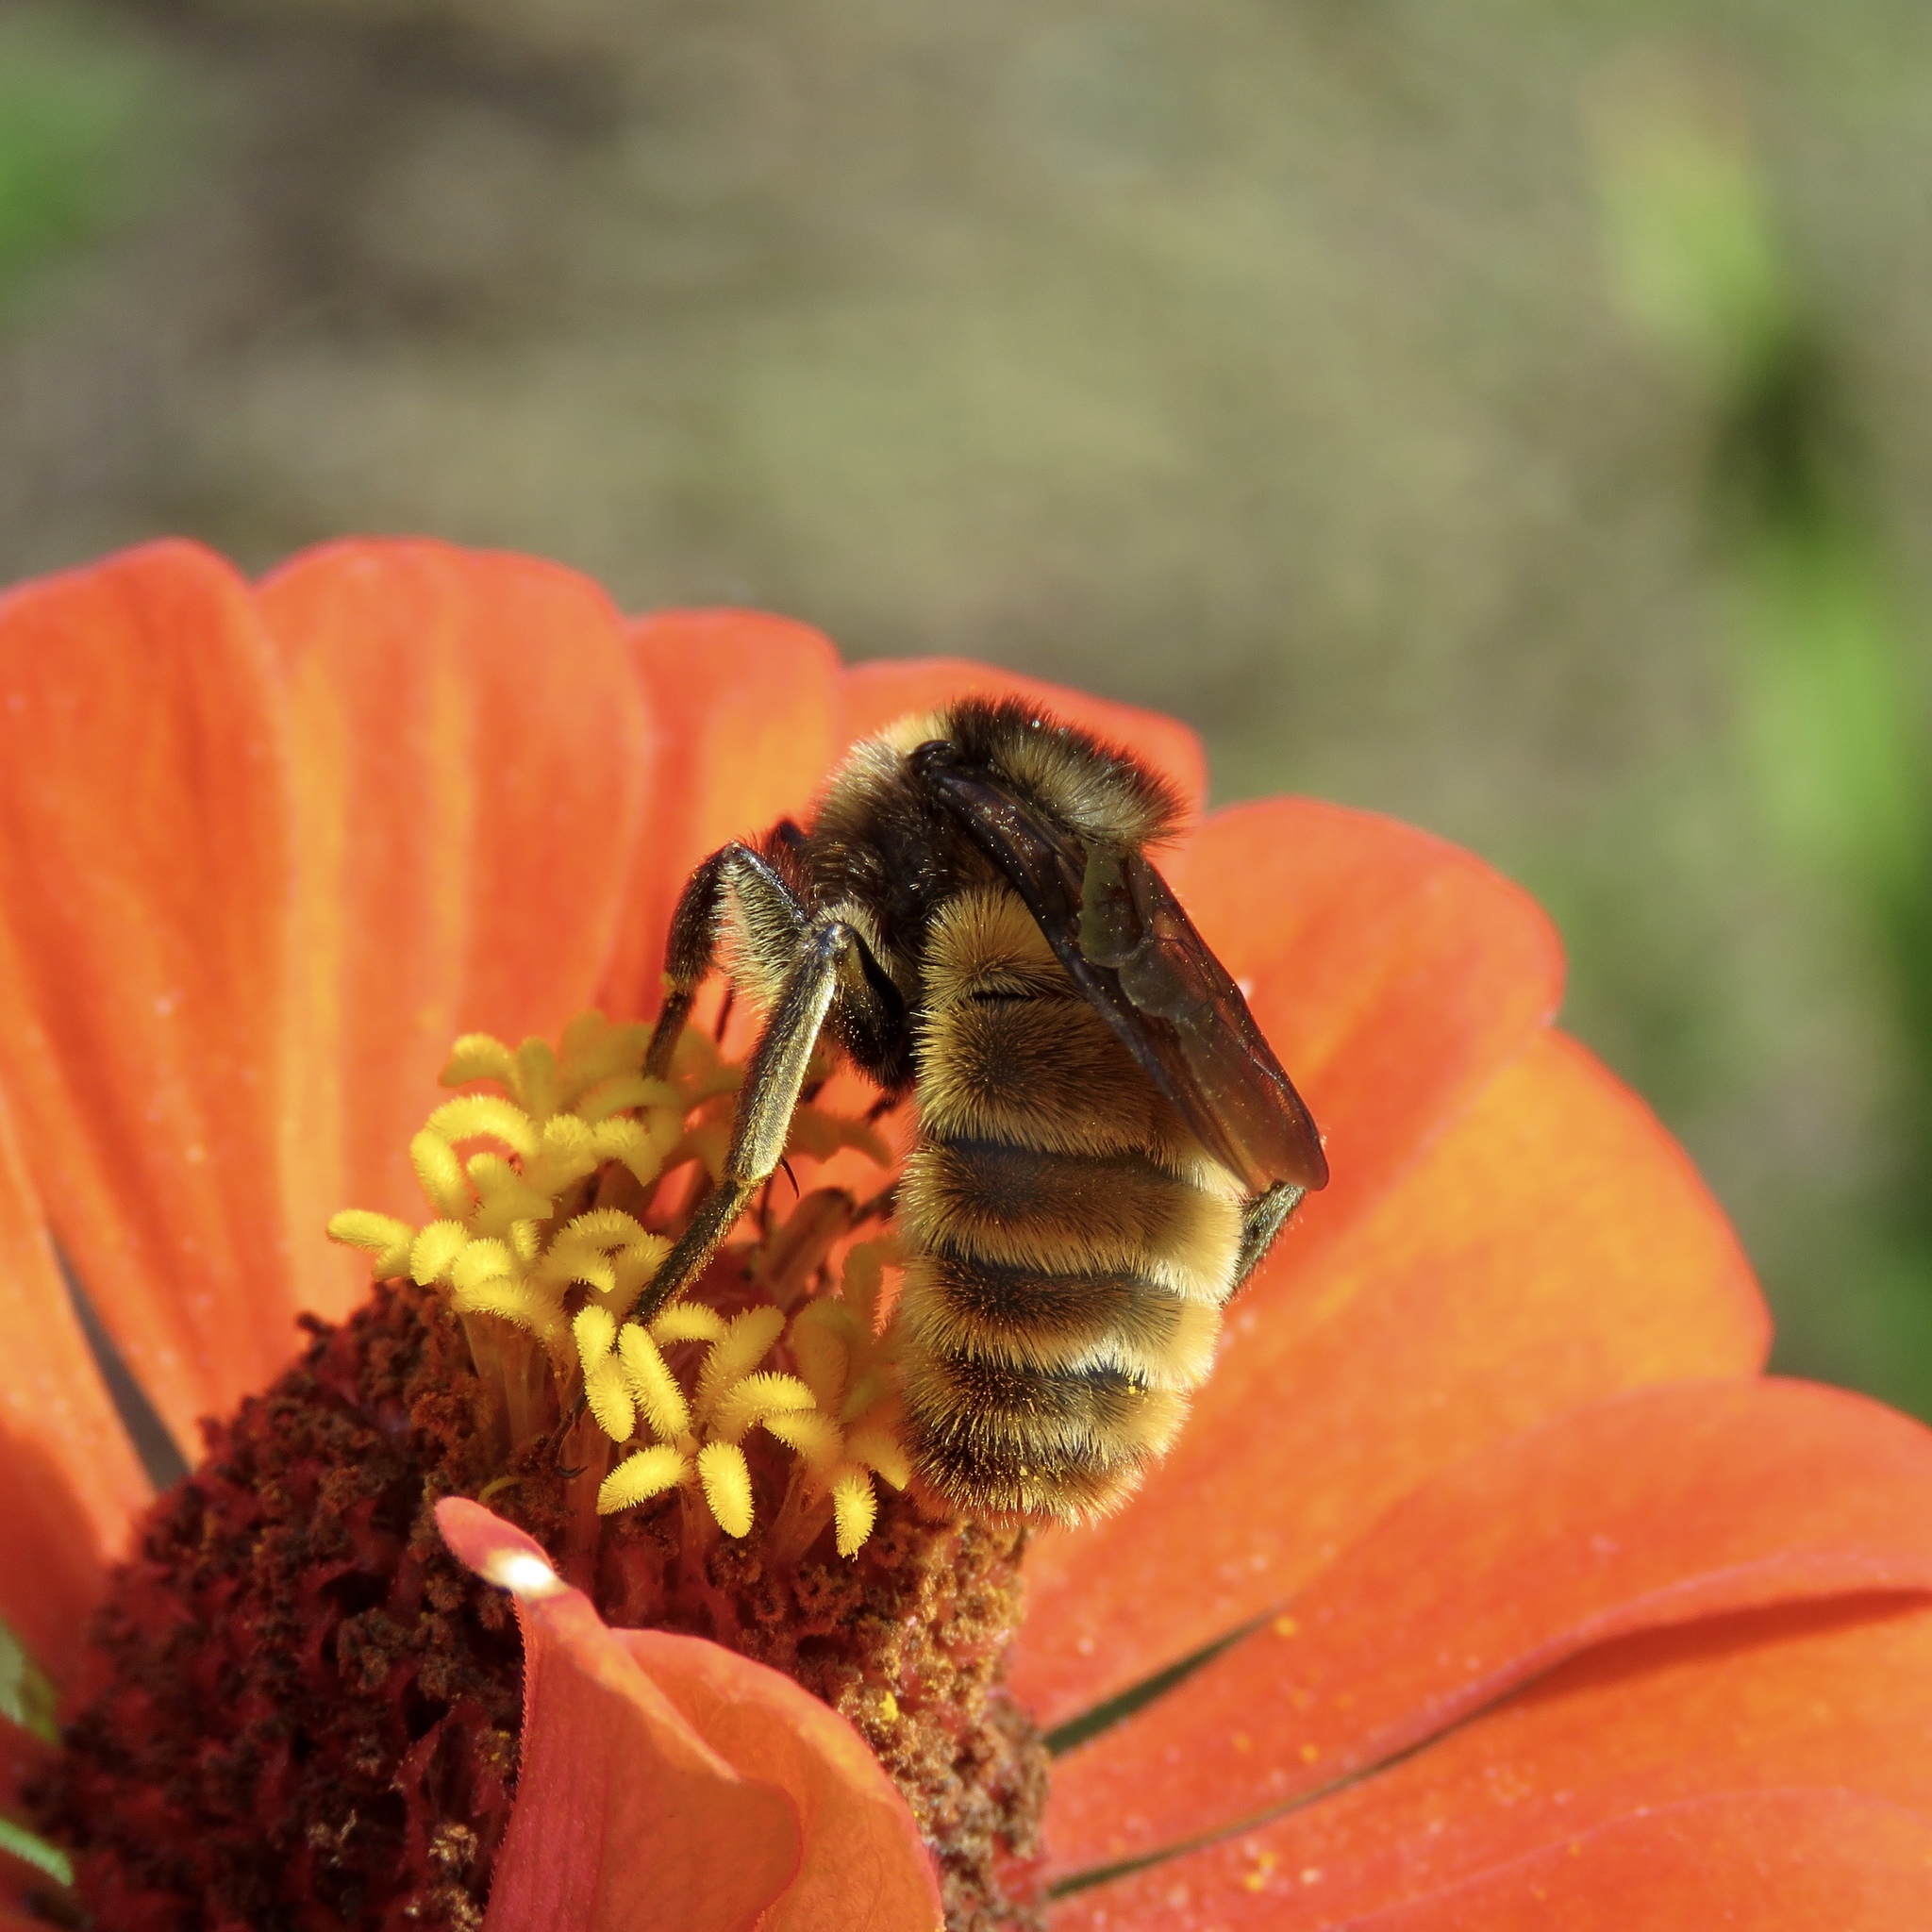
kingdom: Animalia
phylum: Arthropoda
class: Insecta
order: Hymenoptera
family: Apidae
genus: Bombus
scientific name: Bombus pensylvanicus
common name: Bumble bee
